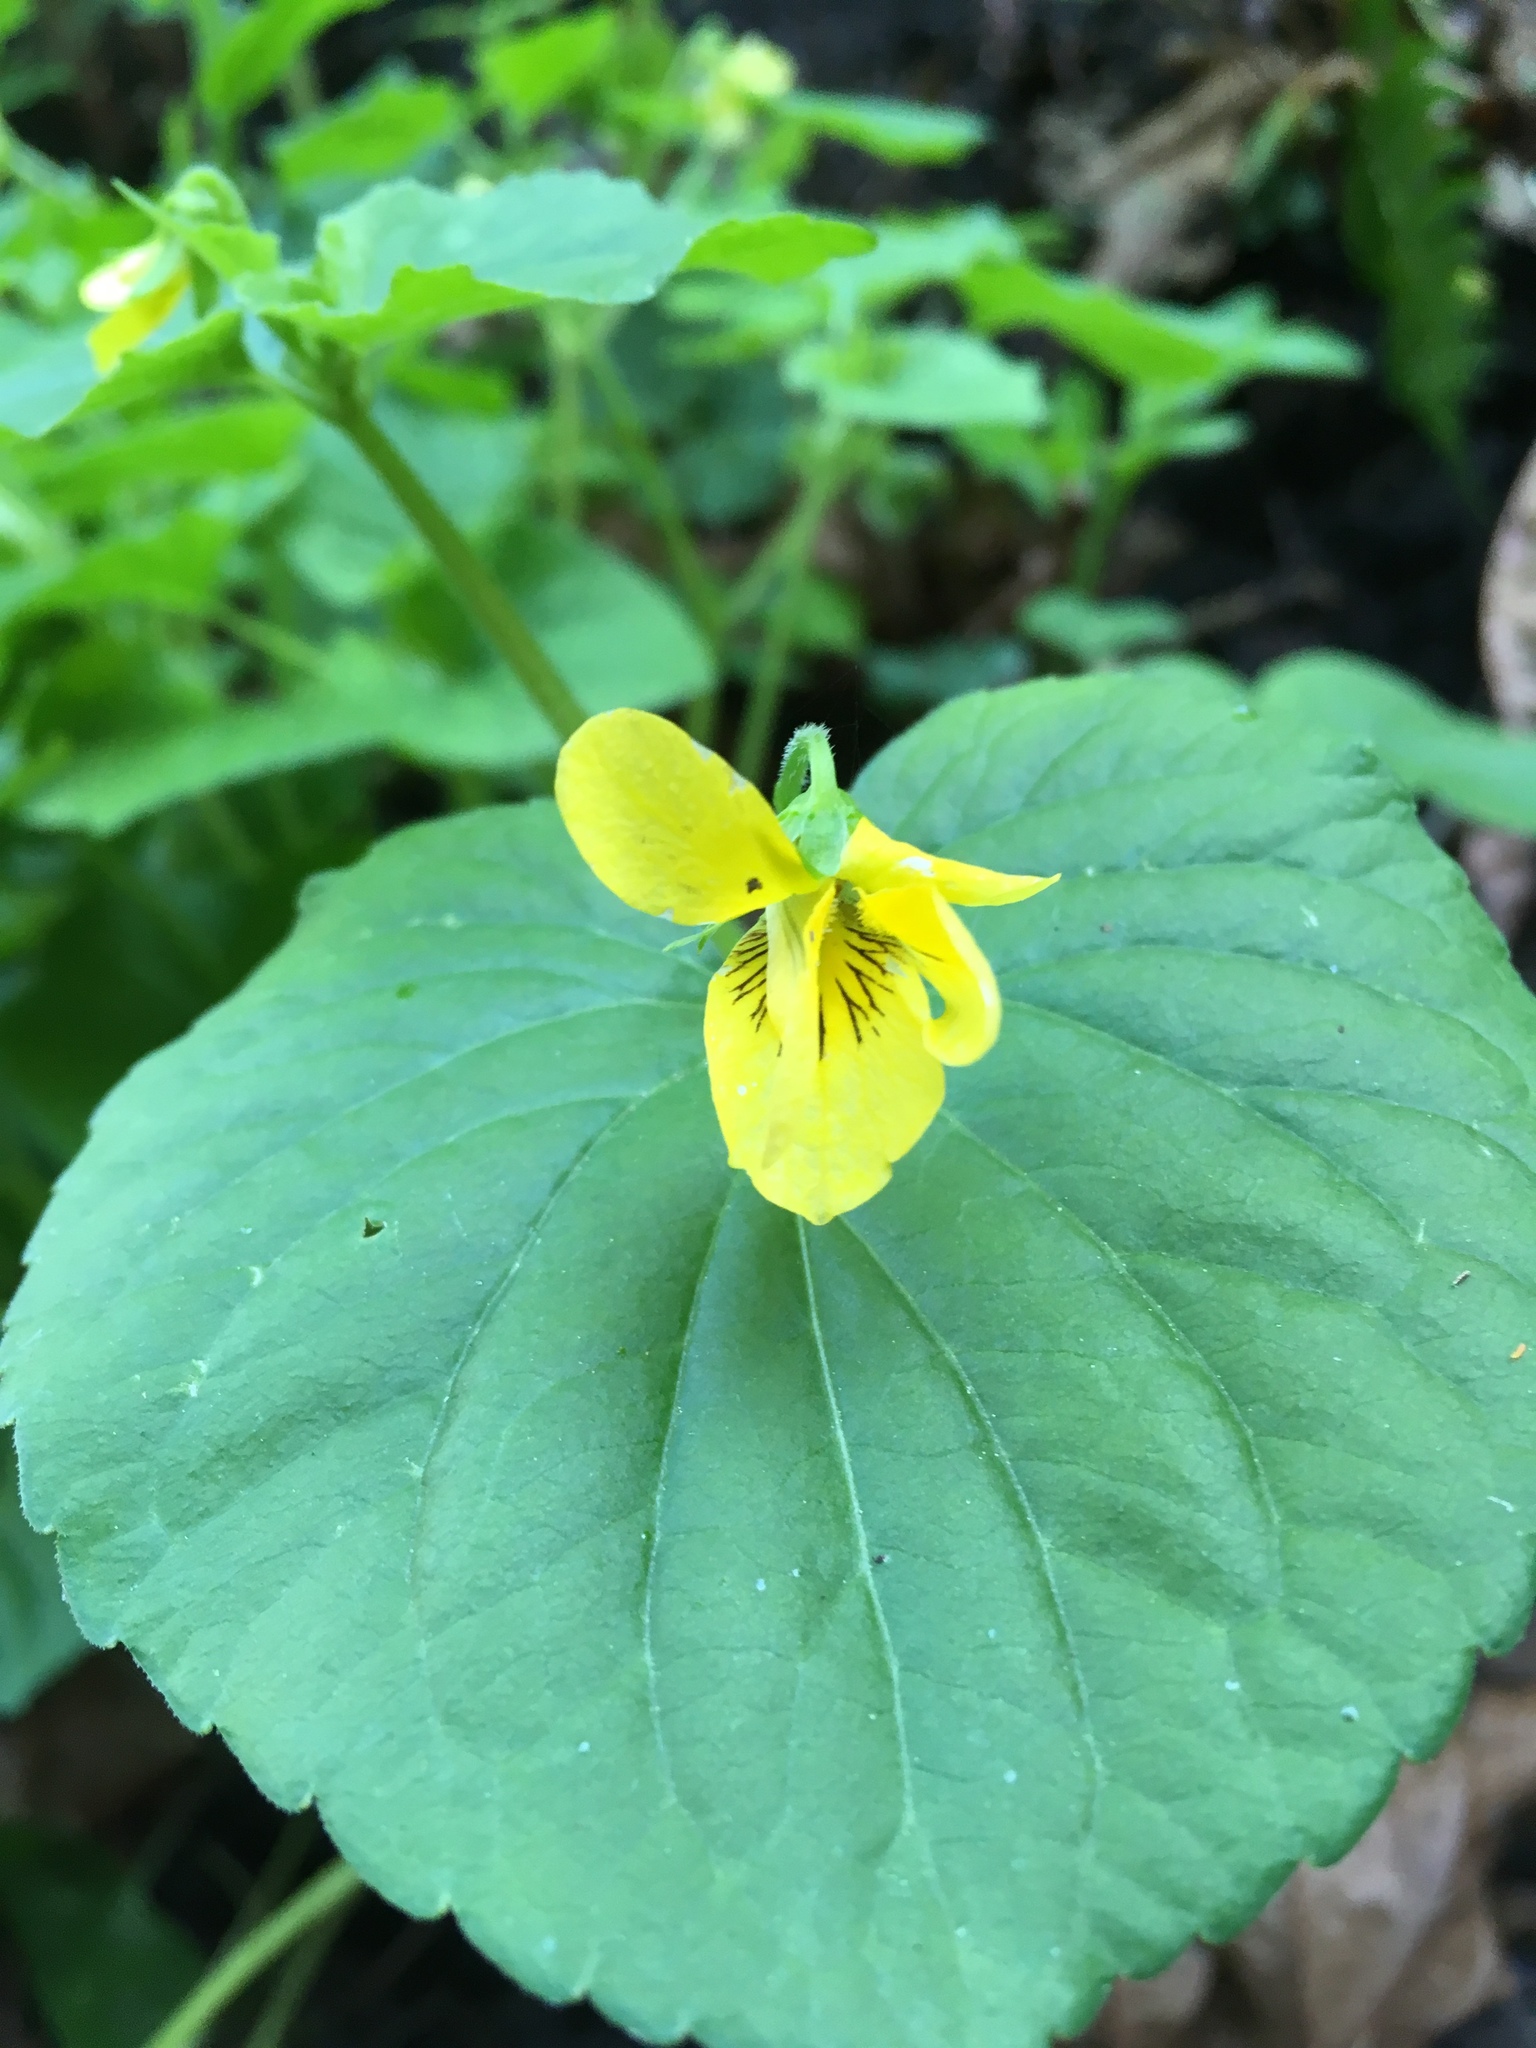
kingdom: Plantae
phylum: Tracheophyta
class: Magnoliopsida
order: Malpighiales
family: Violaceae
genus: Viola
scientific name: Viola glabella
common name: Stream violet
